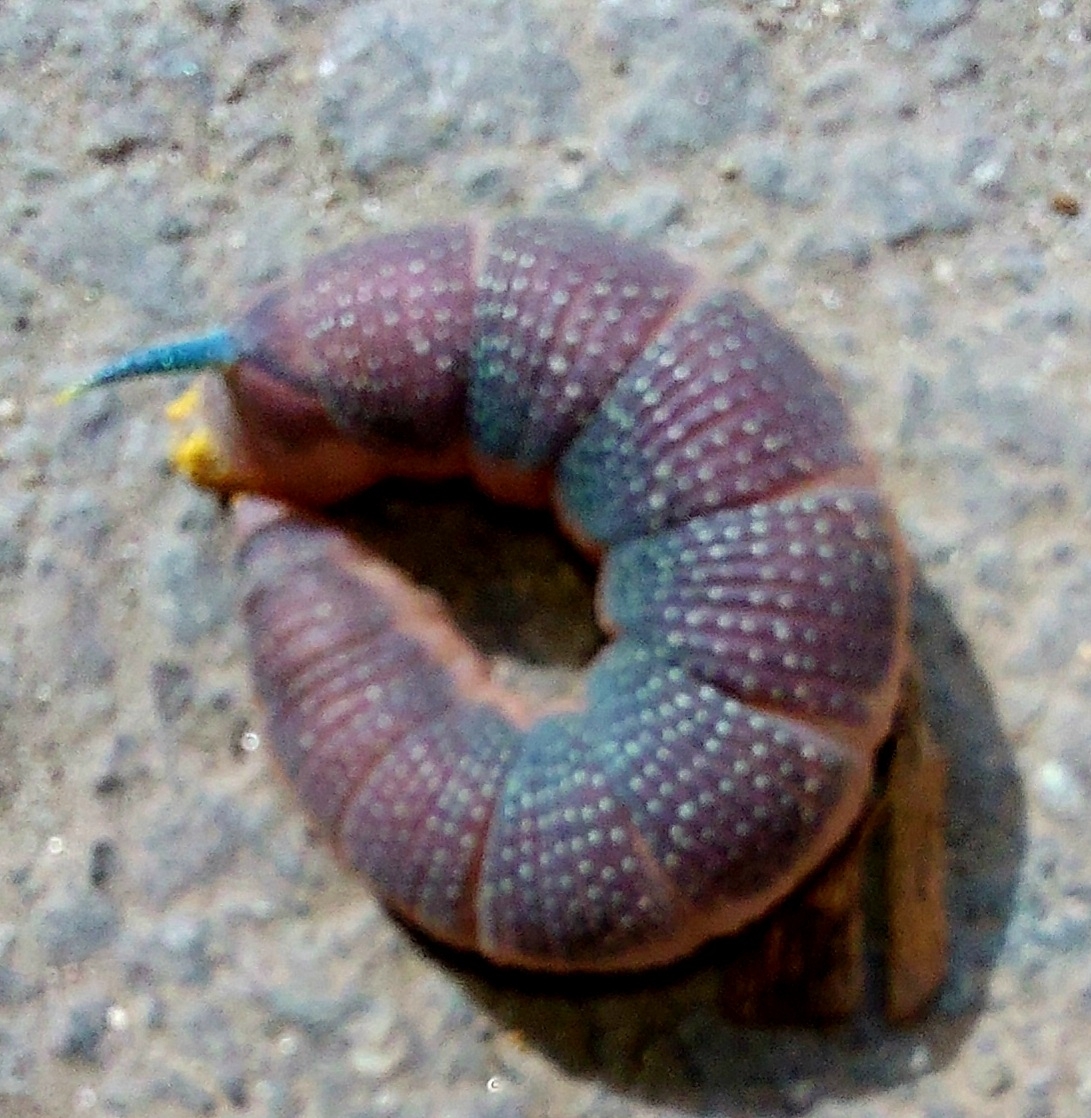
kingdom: Animalia
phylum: Arthropoda
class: Insecta
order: Lepidoptera
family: Sphingidae
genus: Mimas
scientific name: Mimas tiliae
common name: Lime hawk-moth
